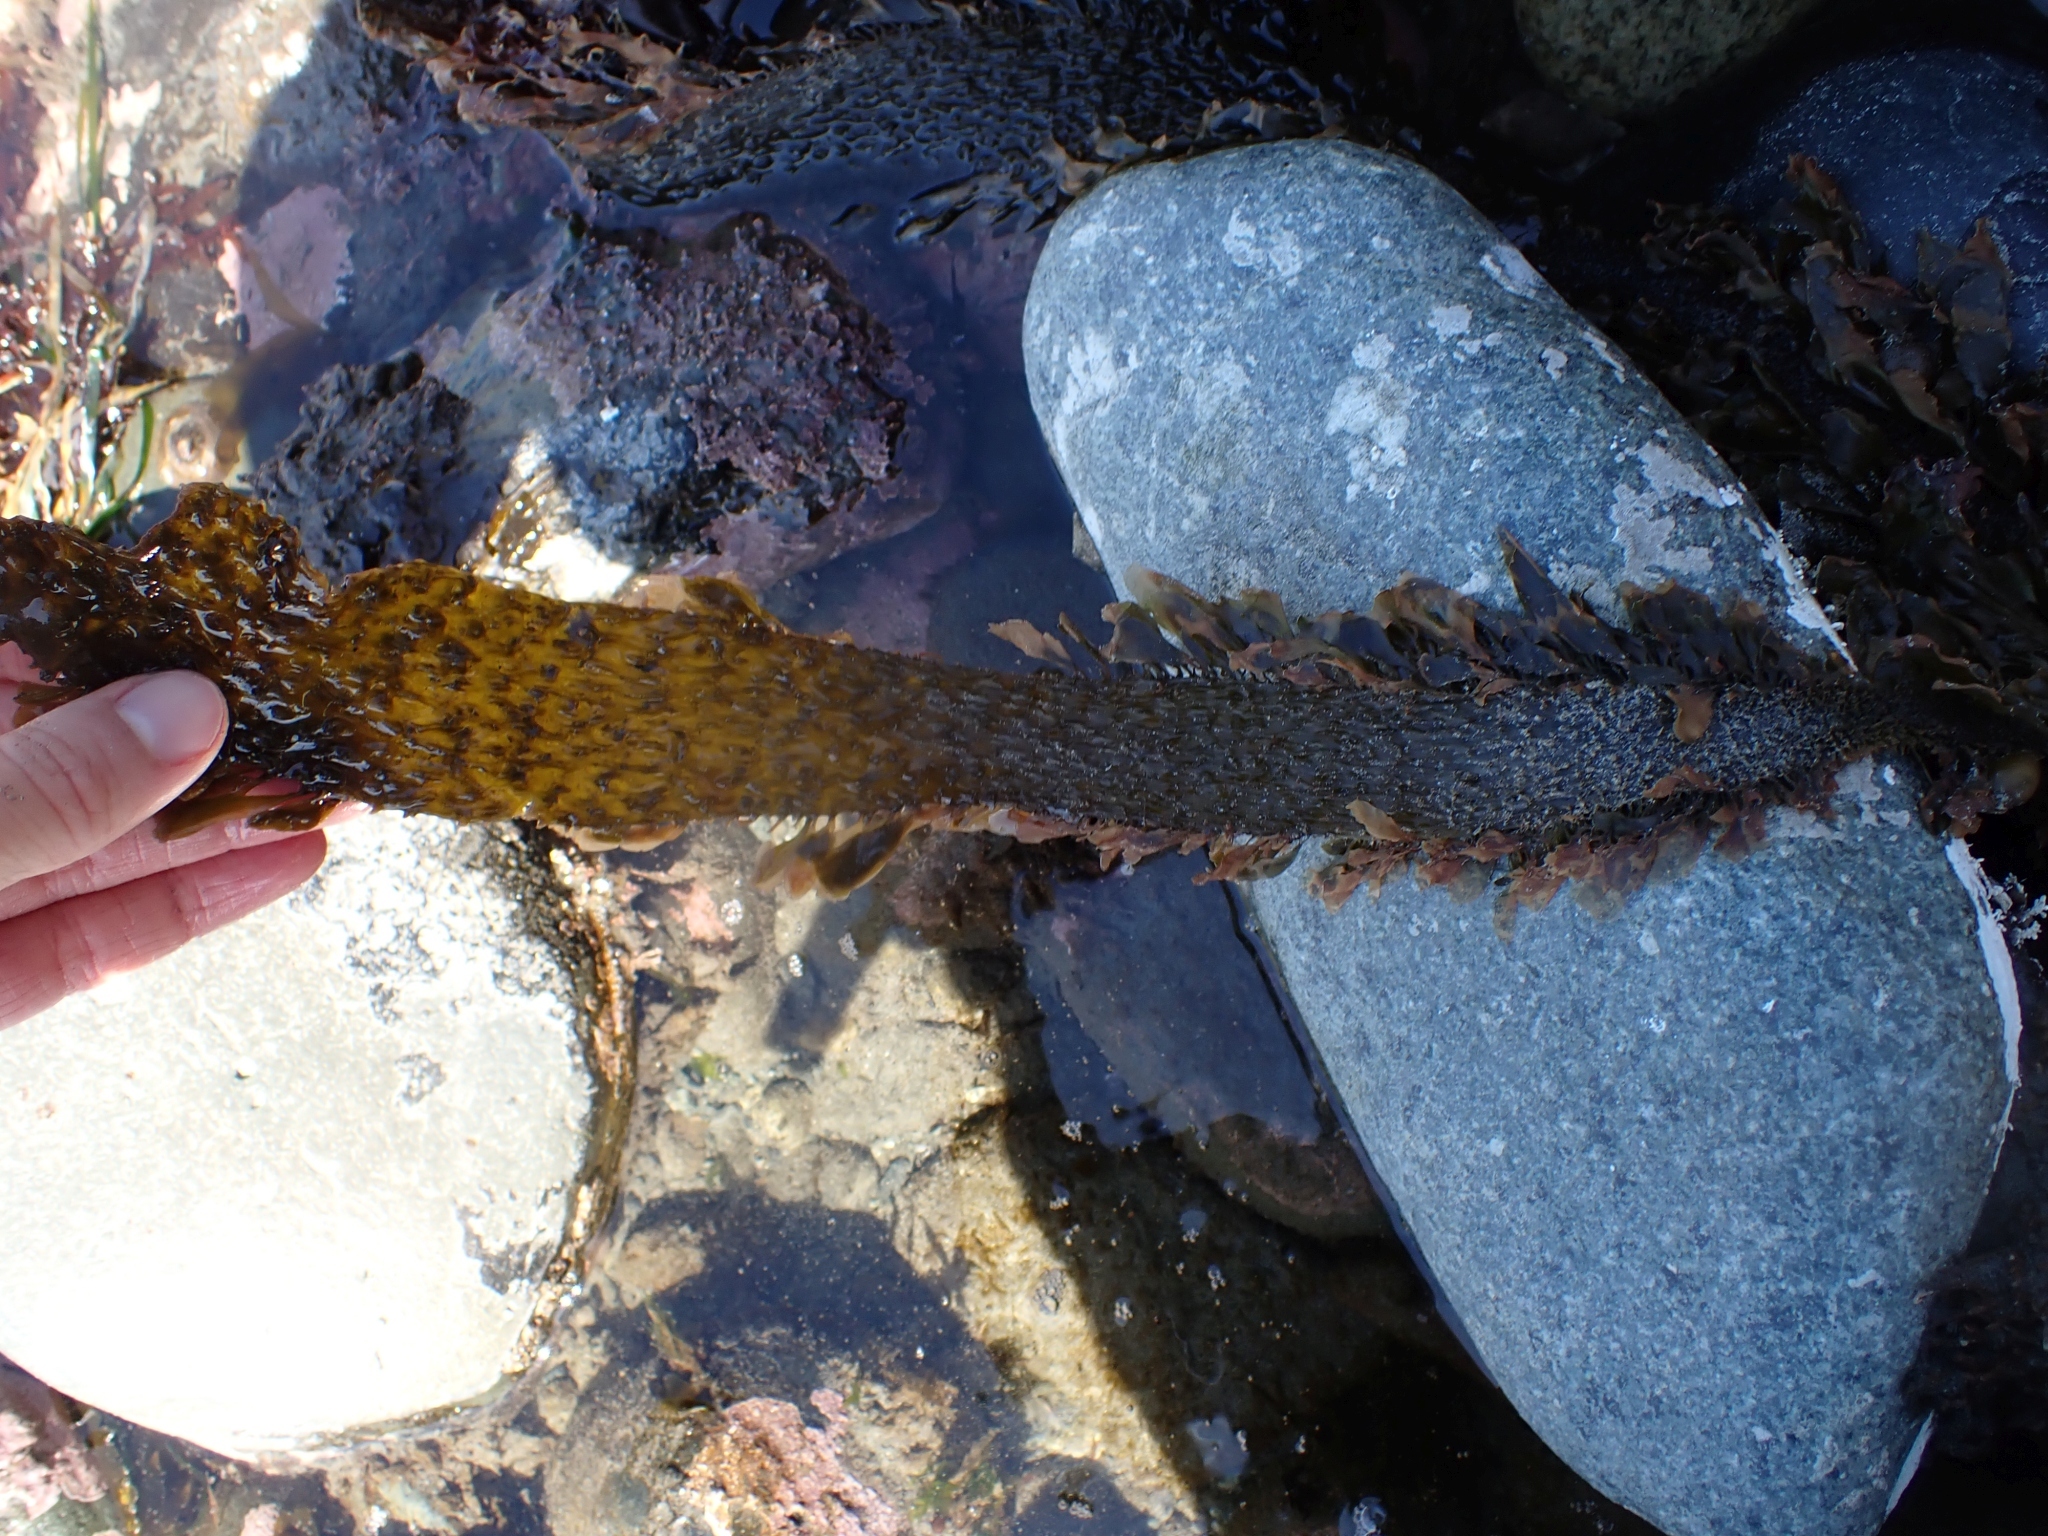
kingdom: Chromista
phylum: Ochrophyta
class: Phaeophyceae
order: Laminariales
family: Lessoniaceae
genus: Egregia
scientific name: Egregia menziesii
